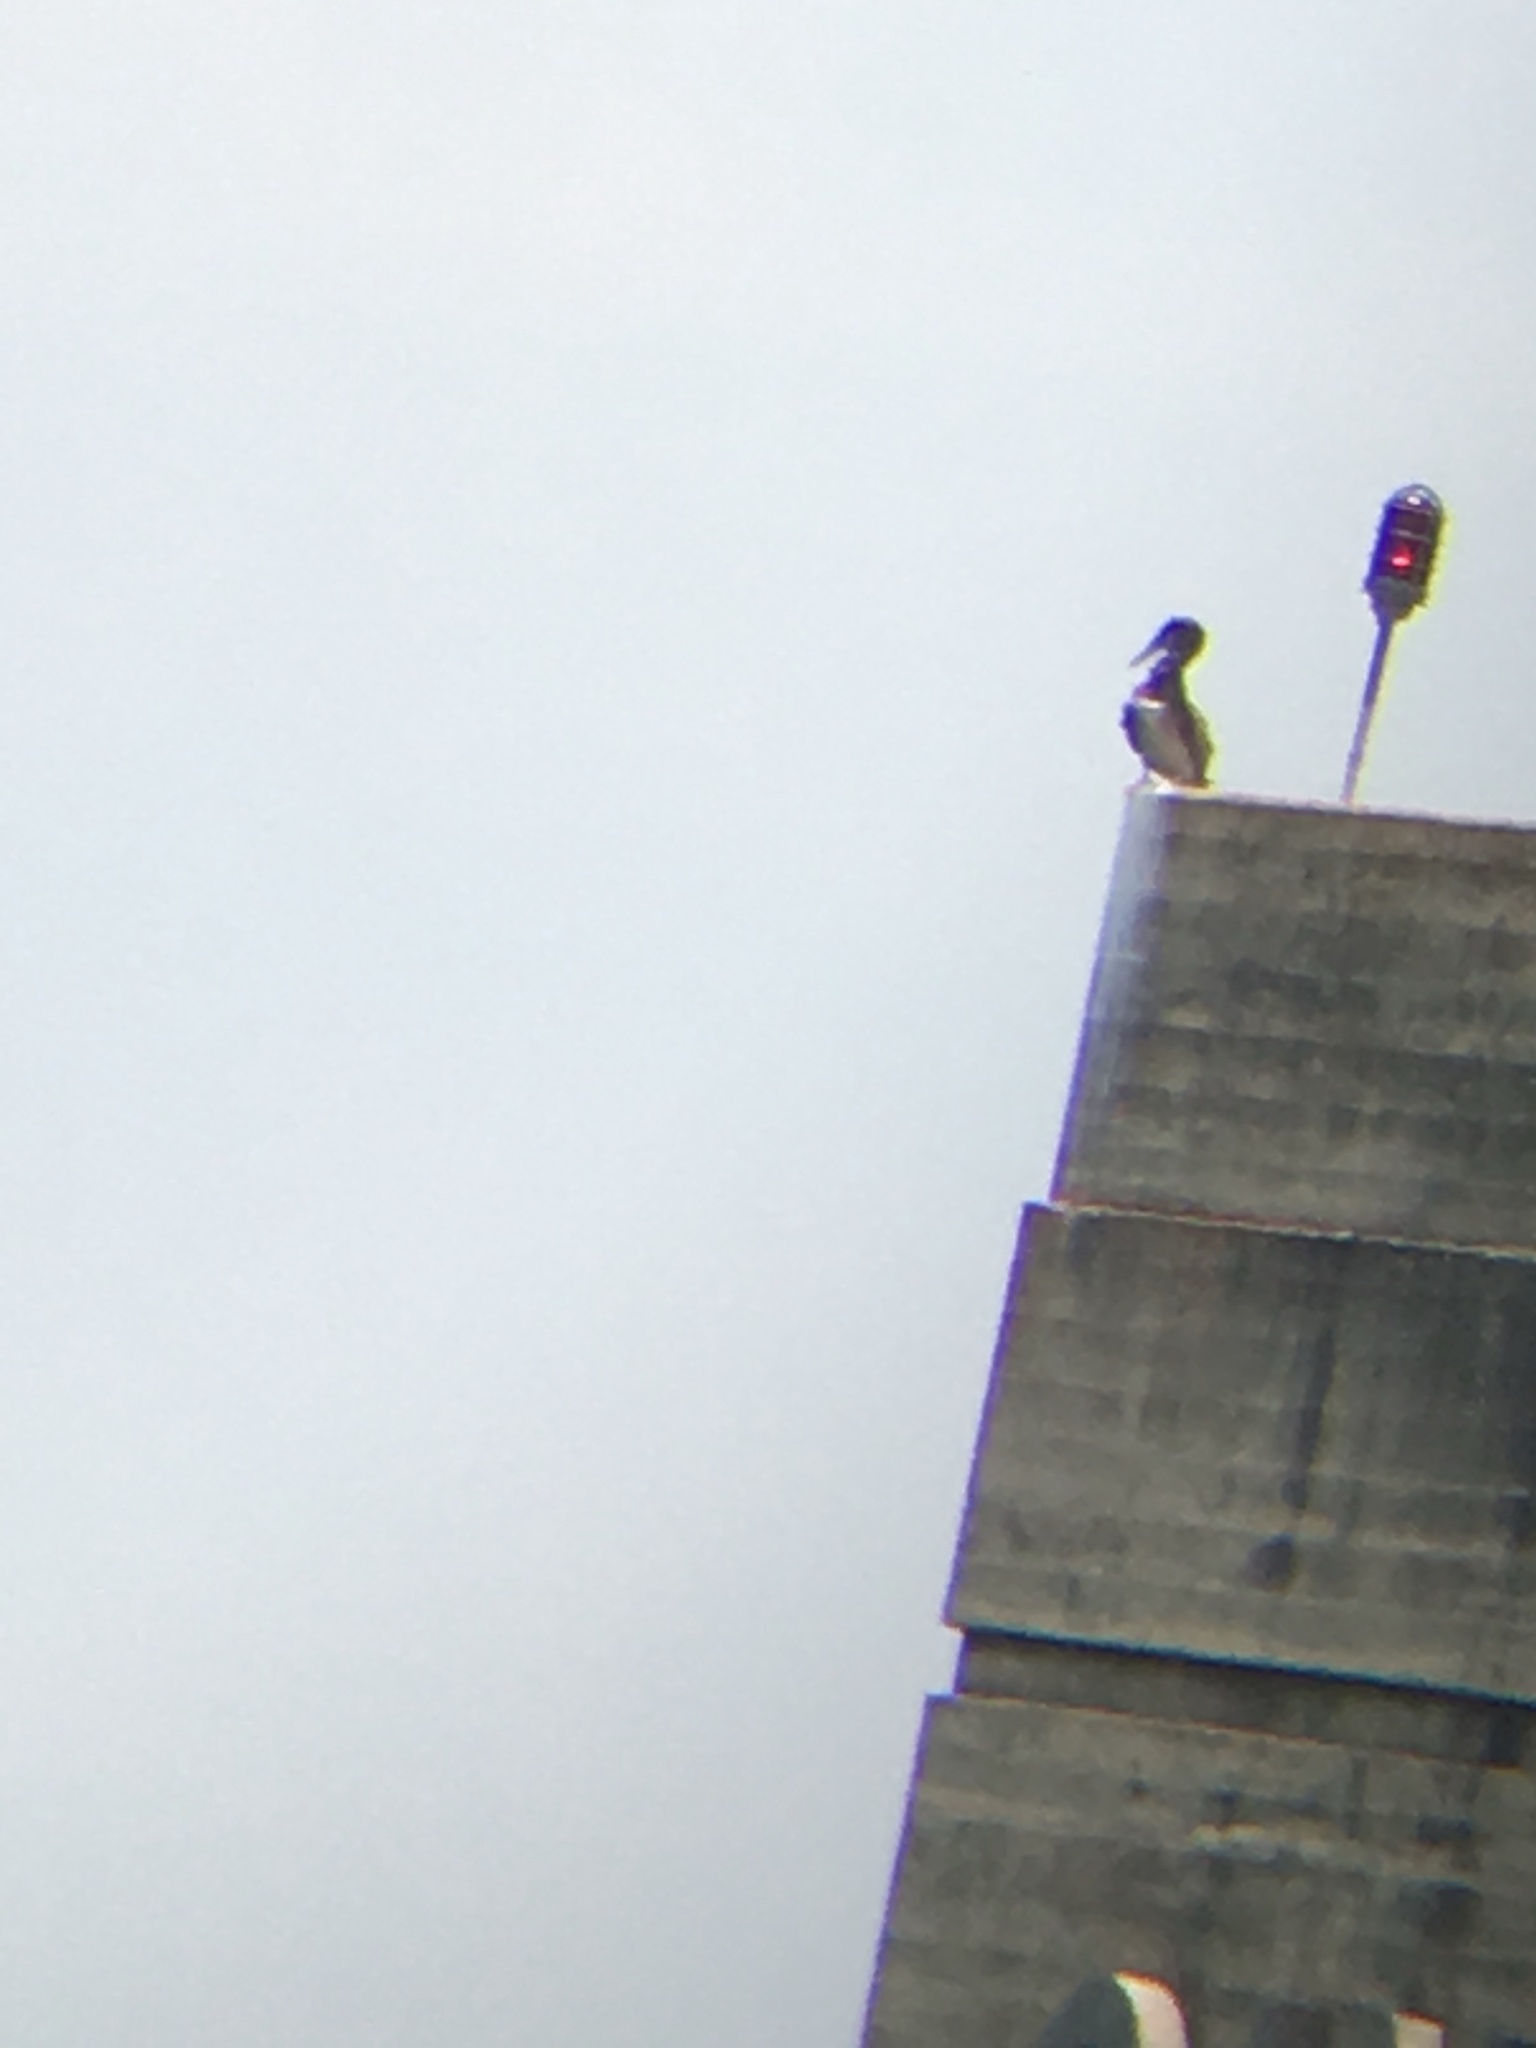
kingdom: Animalia
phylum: Chordata
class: Aves
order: Suliformes
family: Sulidae
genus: Sula
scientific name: Sula leucogaster
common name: Brown booby
